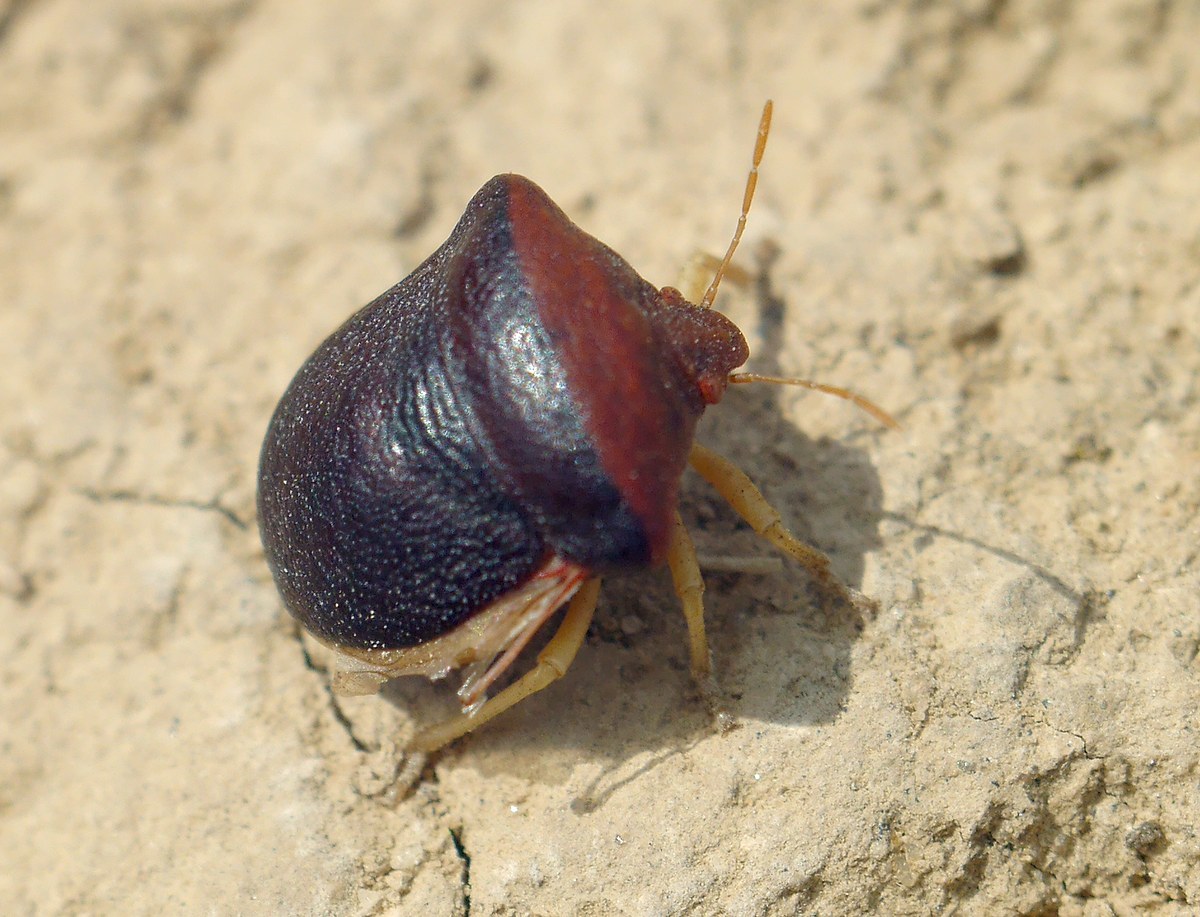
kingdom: Animalia
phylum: Arthropoda
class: Insecta
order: Hemiptera
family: Pentatomidae
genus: Ventocoris
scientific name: Ventocoris rusticus
